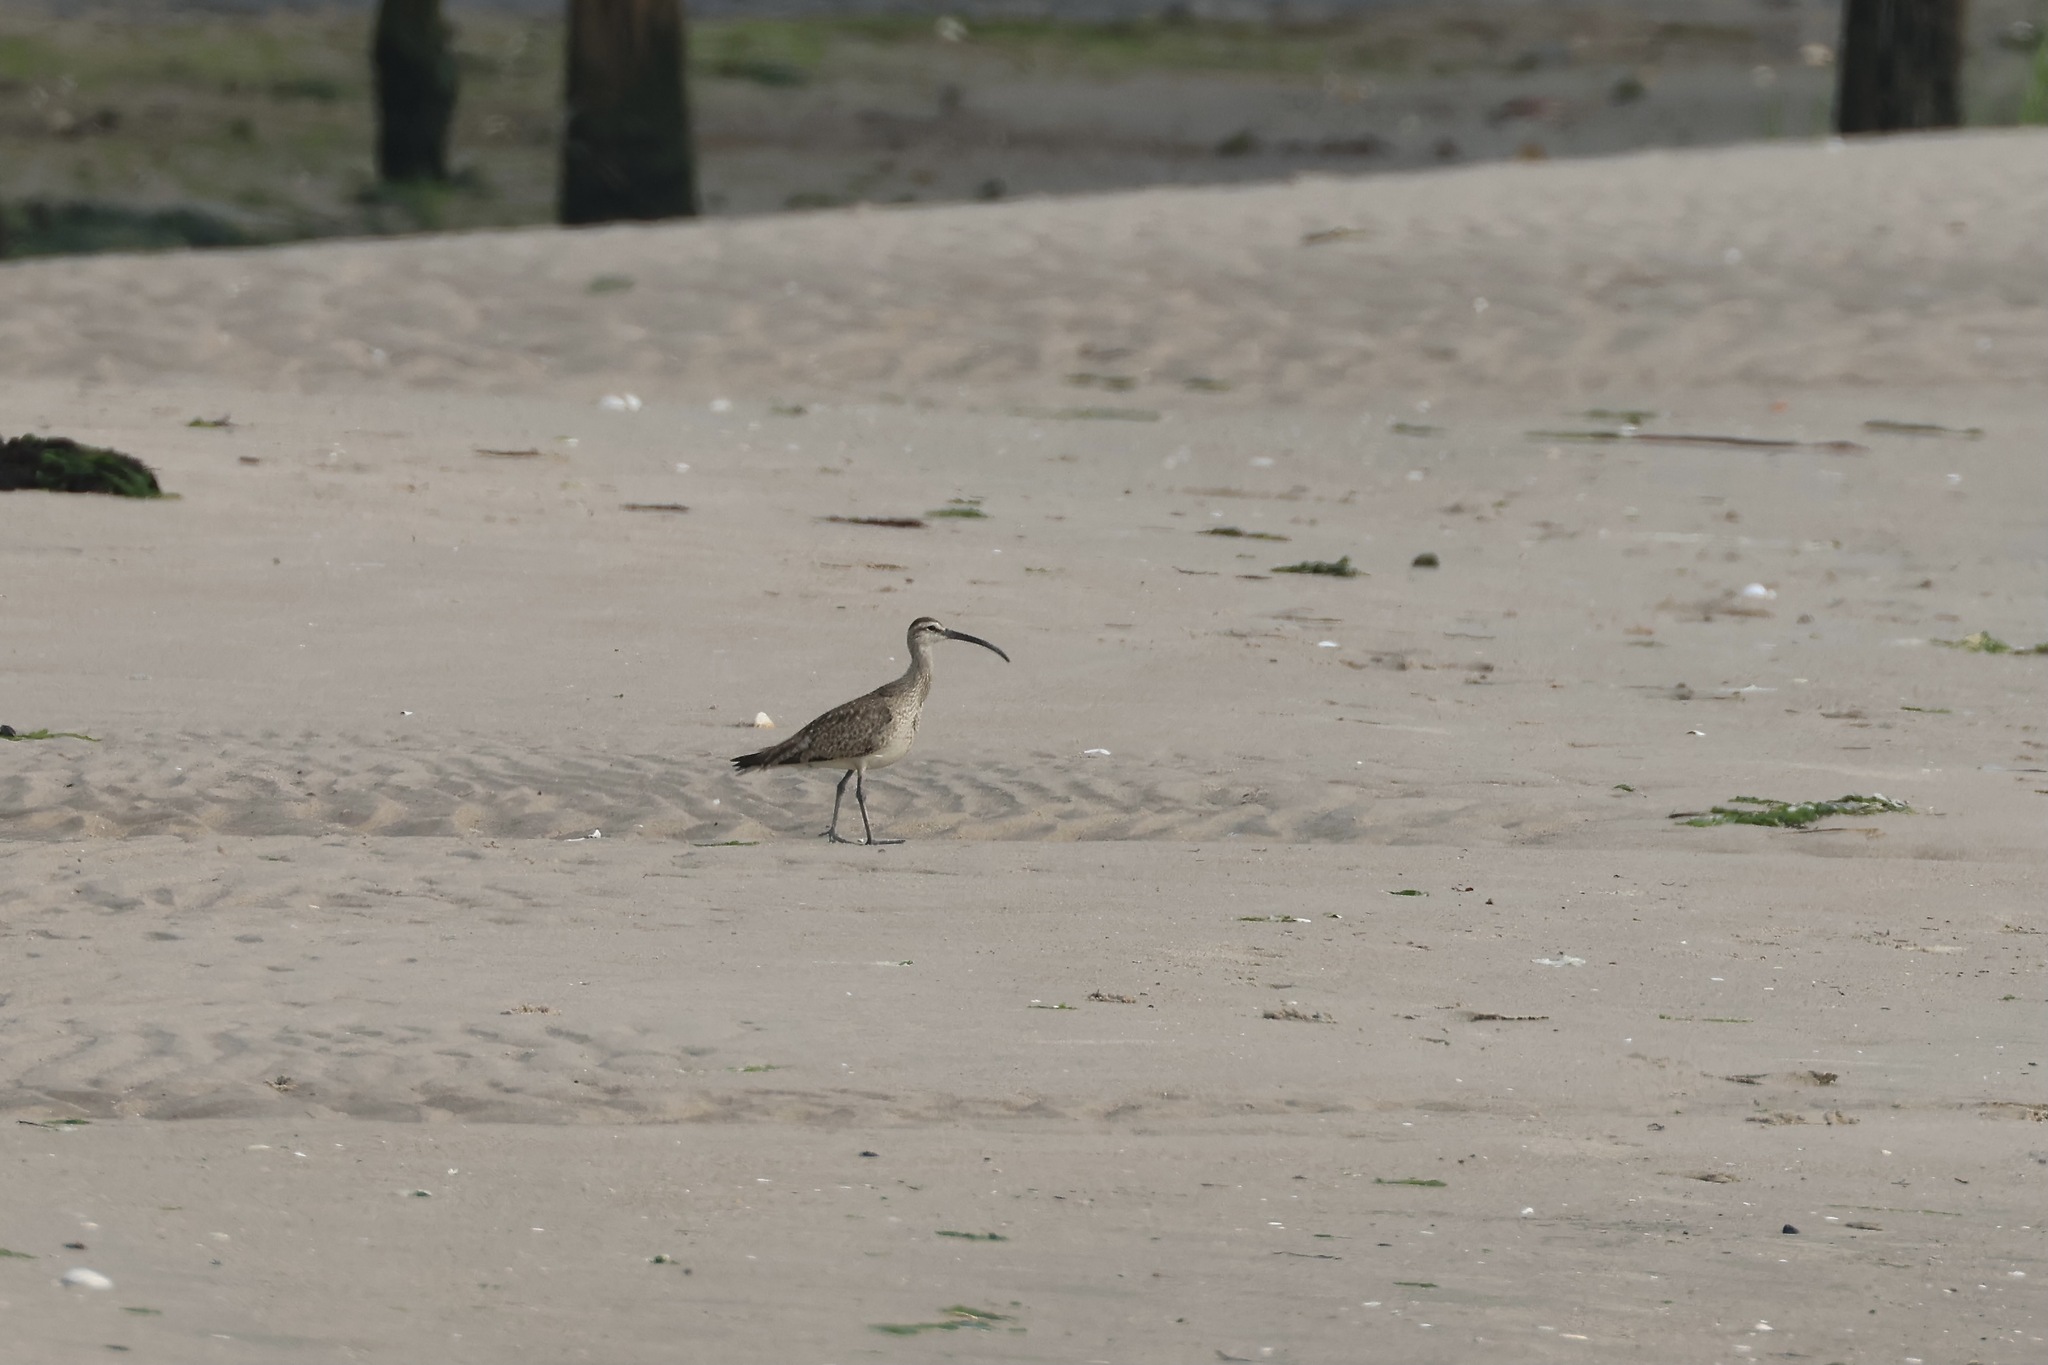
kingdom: Animalia
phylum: Chordata
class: Aves
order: Charadriiformes
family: Scolopacidae
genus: Numenius
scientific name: Numenius phaeopus
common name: Whimbrel
